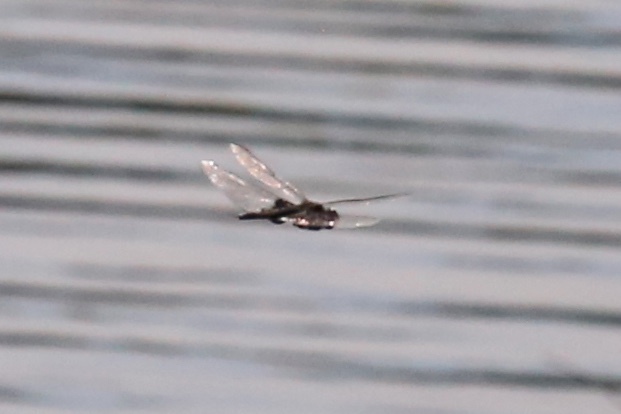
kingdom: Animalia
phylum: Arthropoda
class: Insecta
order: Odonata
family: Libellulidae
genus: Tramea
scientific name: Tramea lacerata
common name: Black saddlebags
